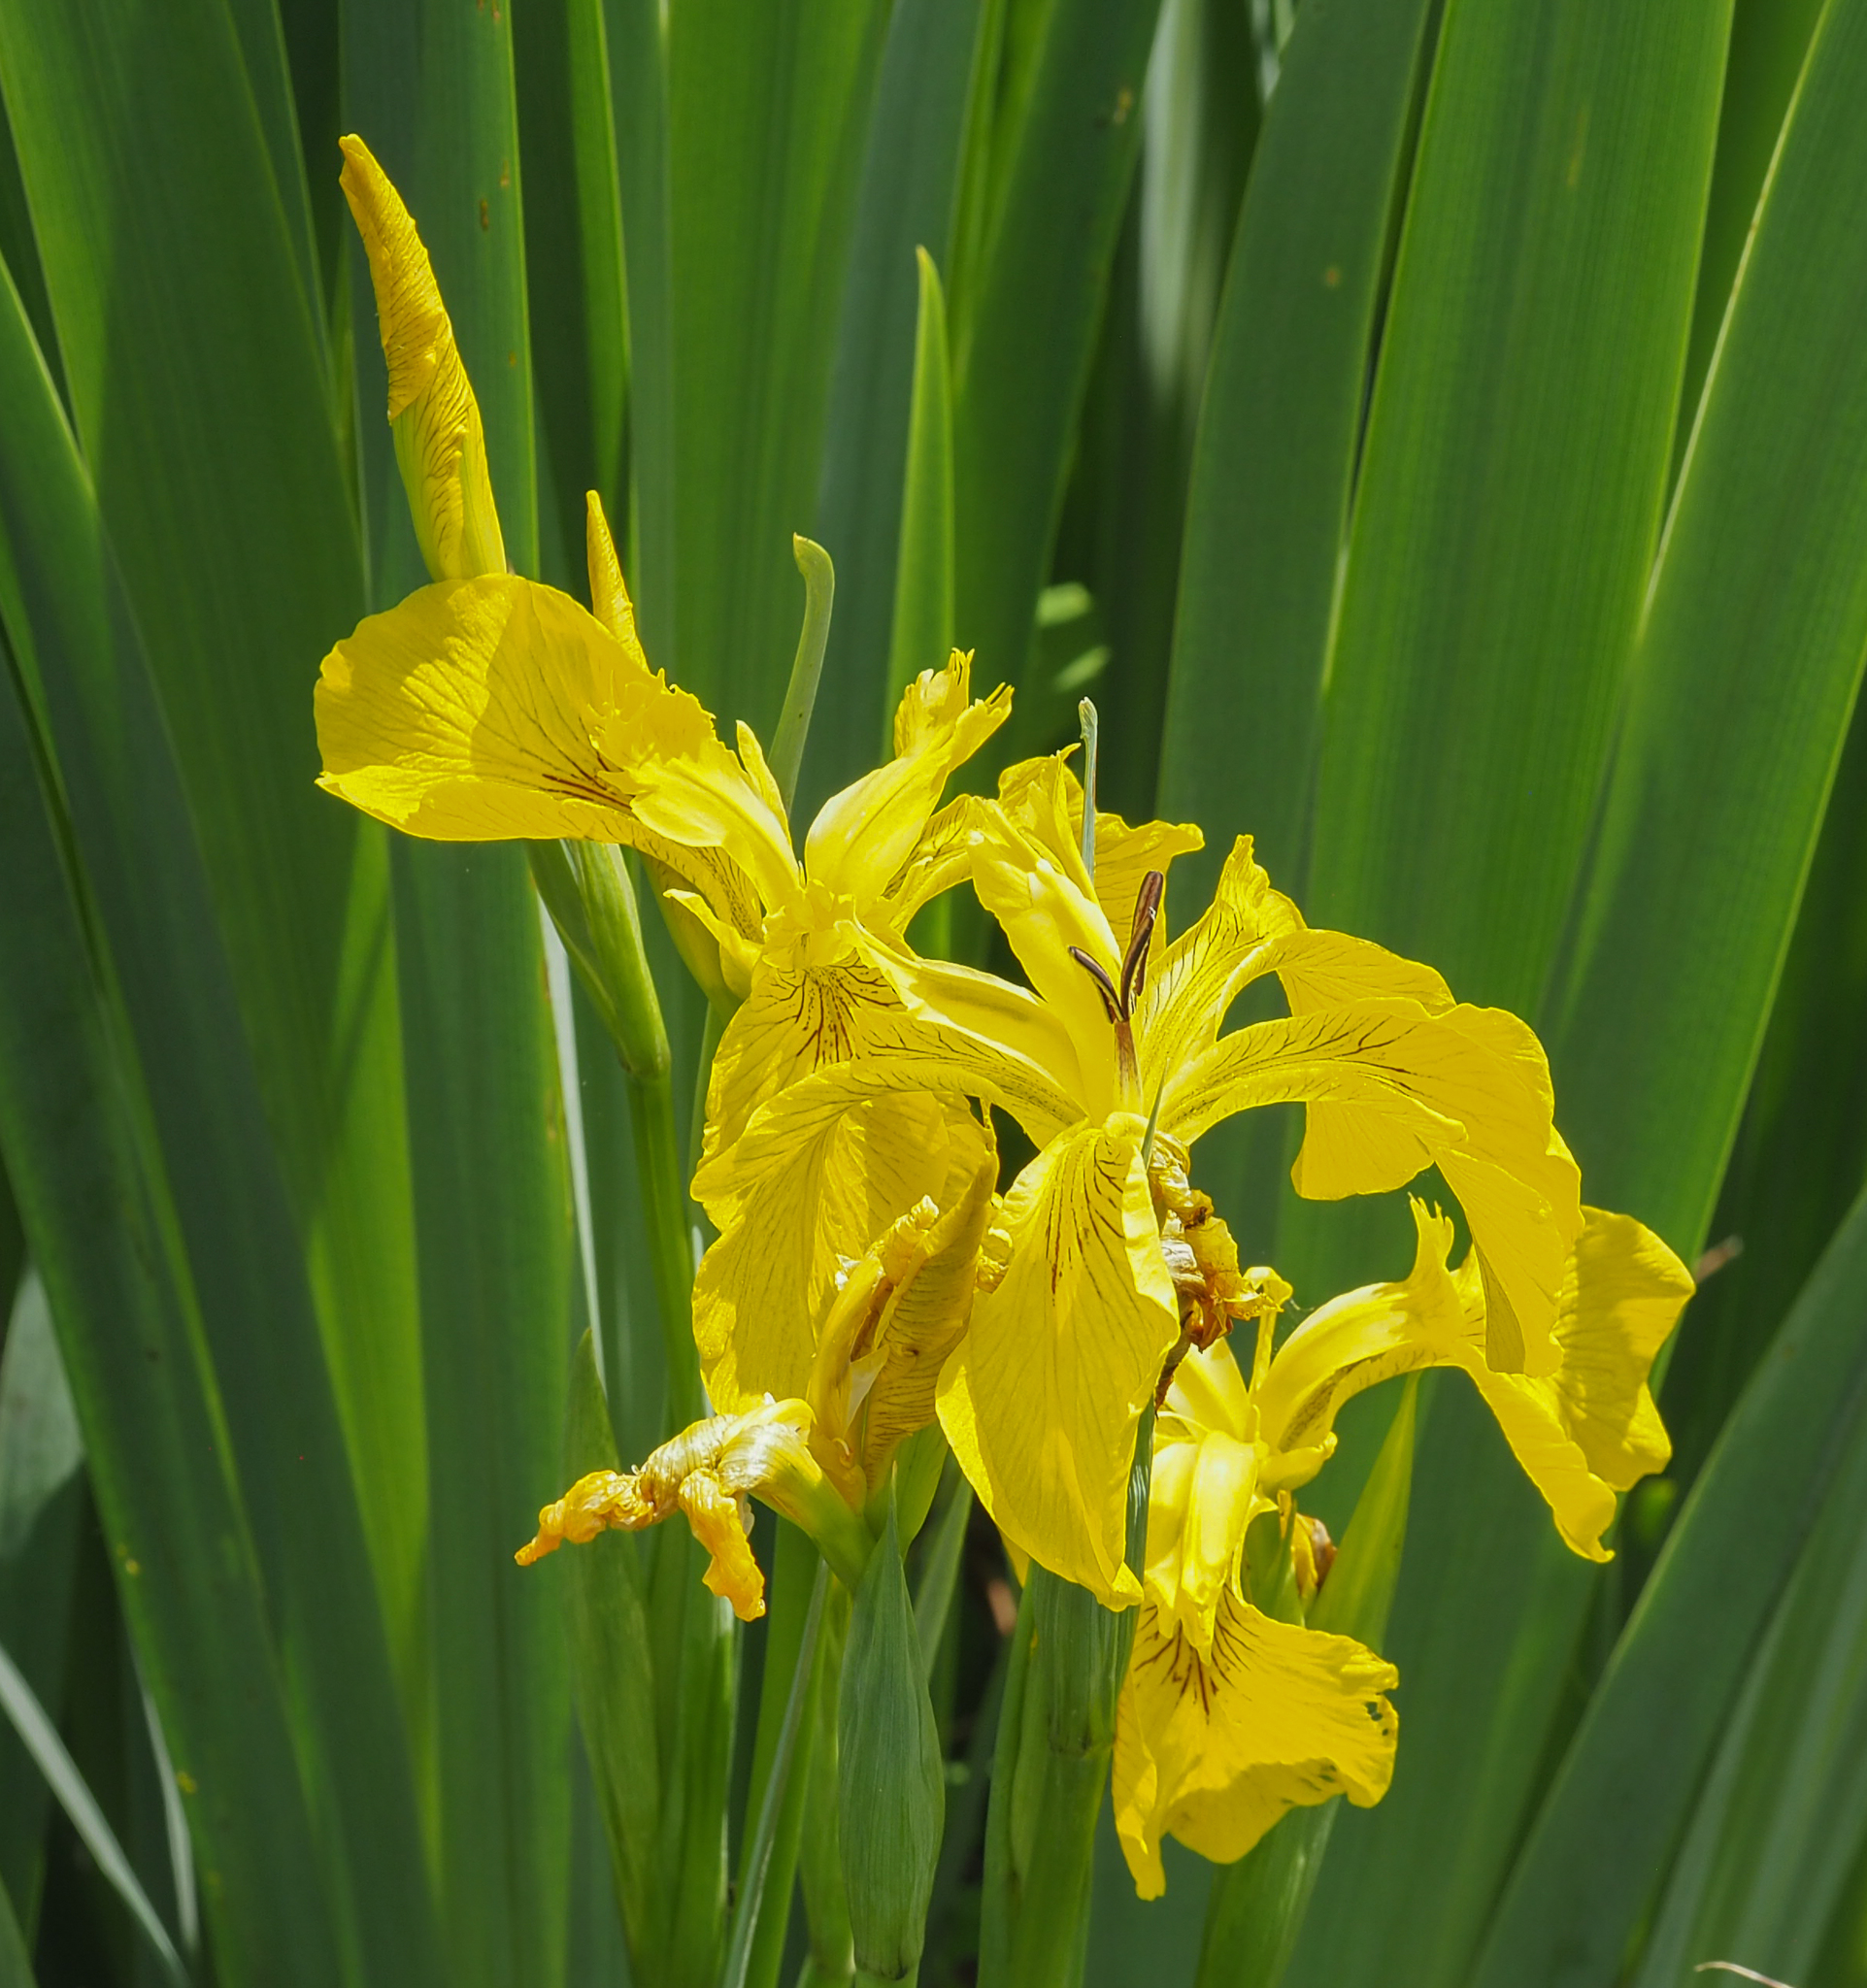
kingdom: Plantae
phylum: Tracheophyta
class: Liliopsida
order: Asparagales
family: Iridaceae
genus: Iris
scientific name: Iris pseudacorus
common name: Yellow flag
